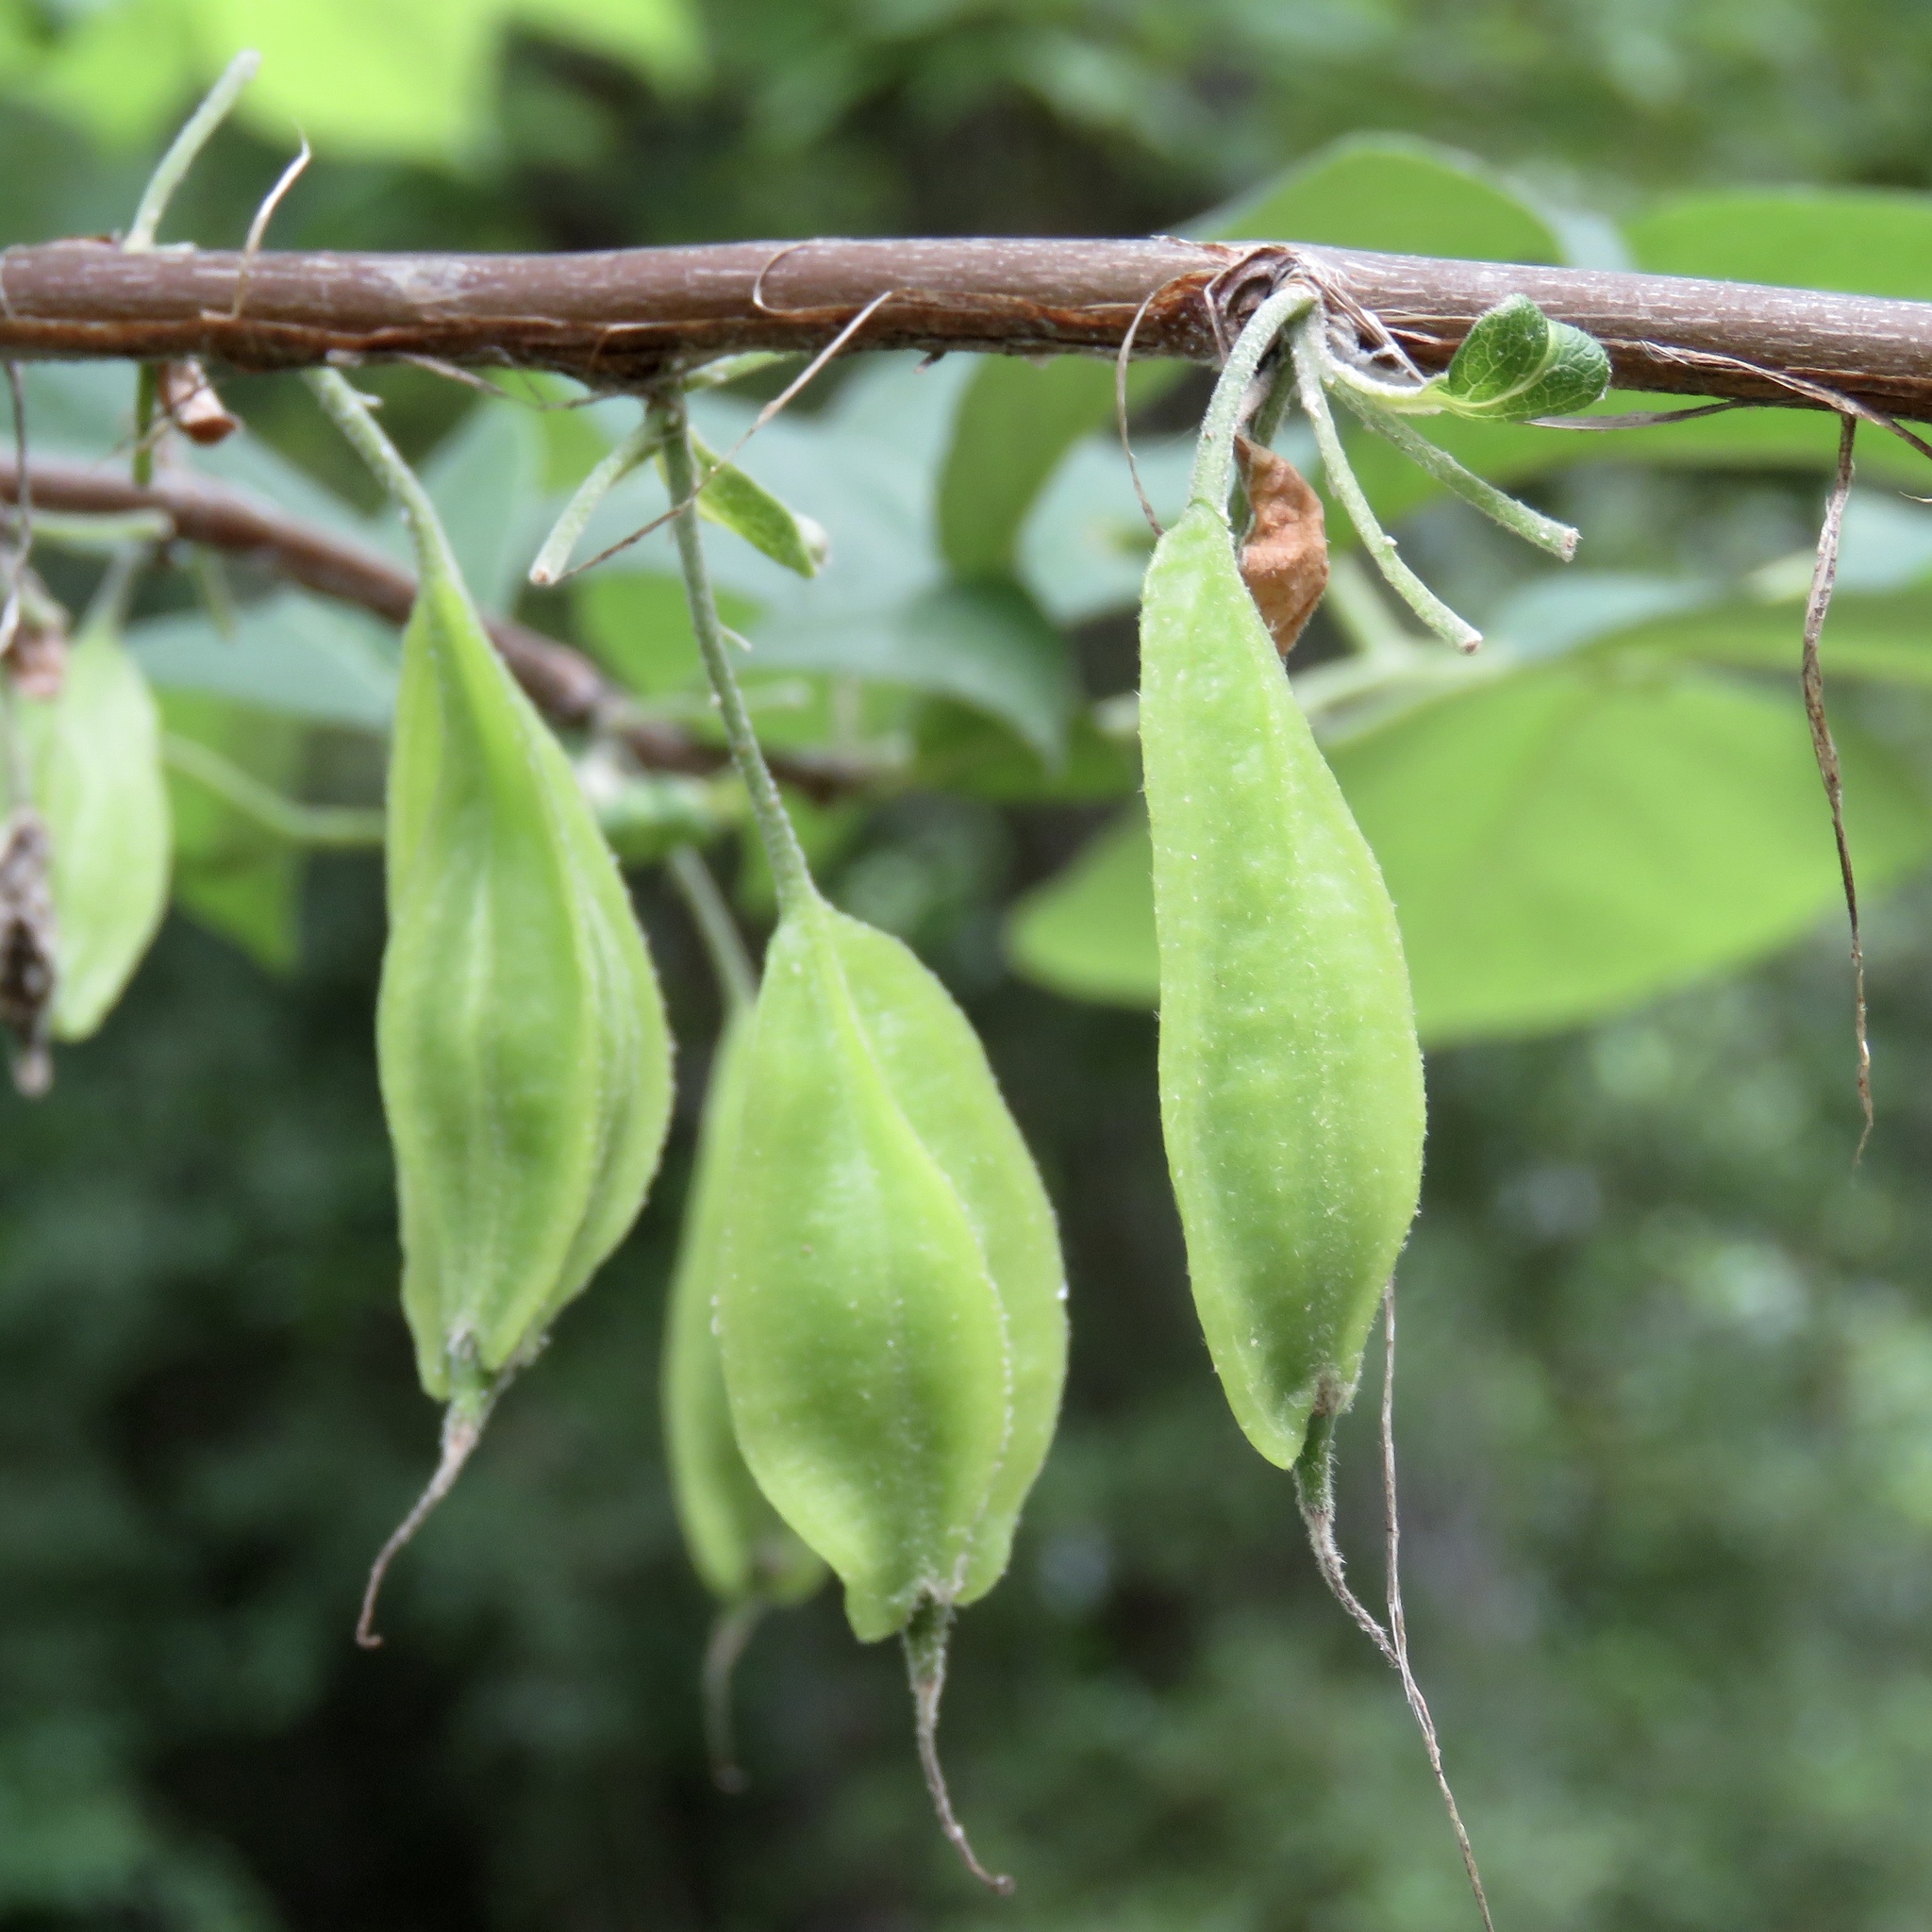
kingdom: Plantae
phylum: Tracheophyta
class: Magnoliopsida
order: Ericales
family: Styracaceae
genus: Halesia
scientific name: Halesia diptera
